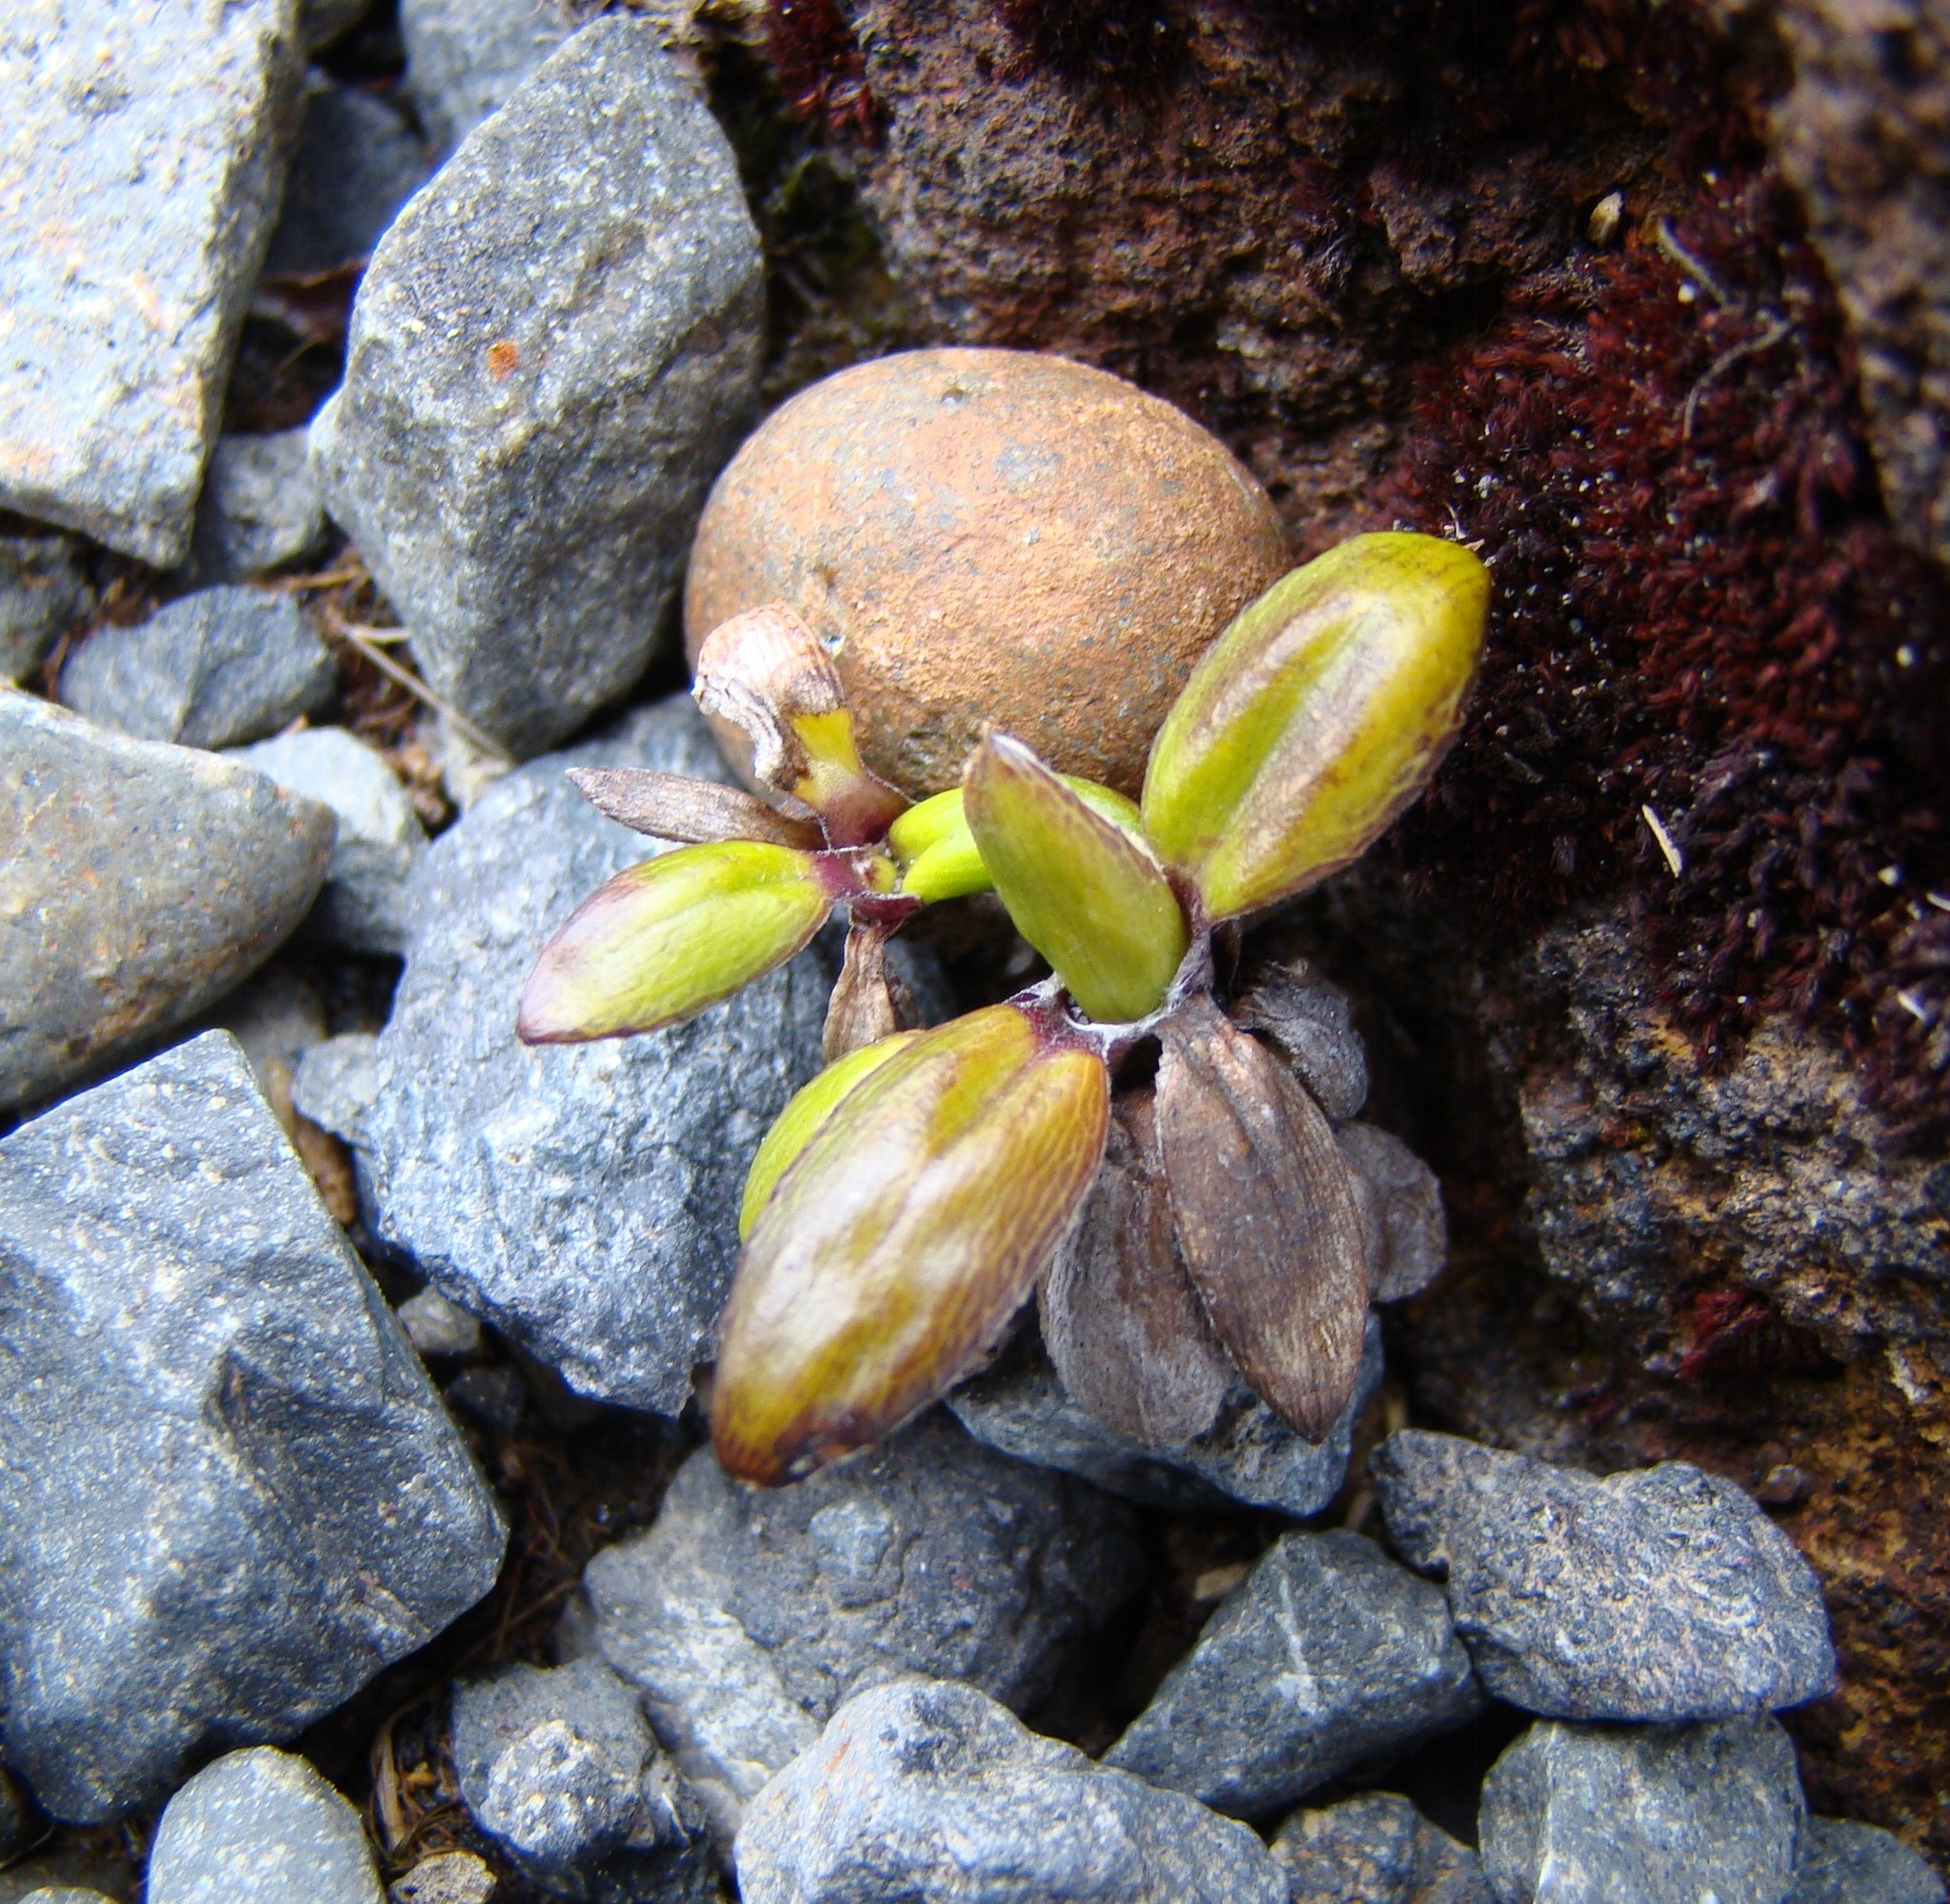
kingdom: Plantae
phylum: Tracheophyta
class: Magnoliopsida
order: Asterales
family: Asteraceae
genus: Celmisia
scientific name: Celmisia spectabilis
